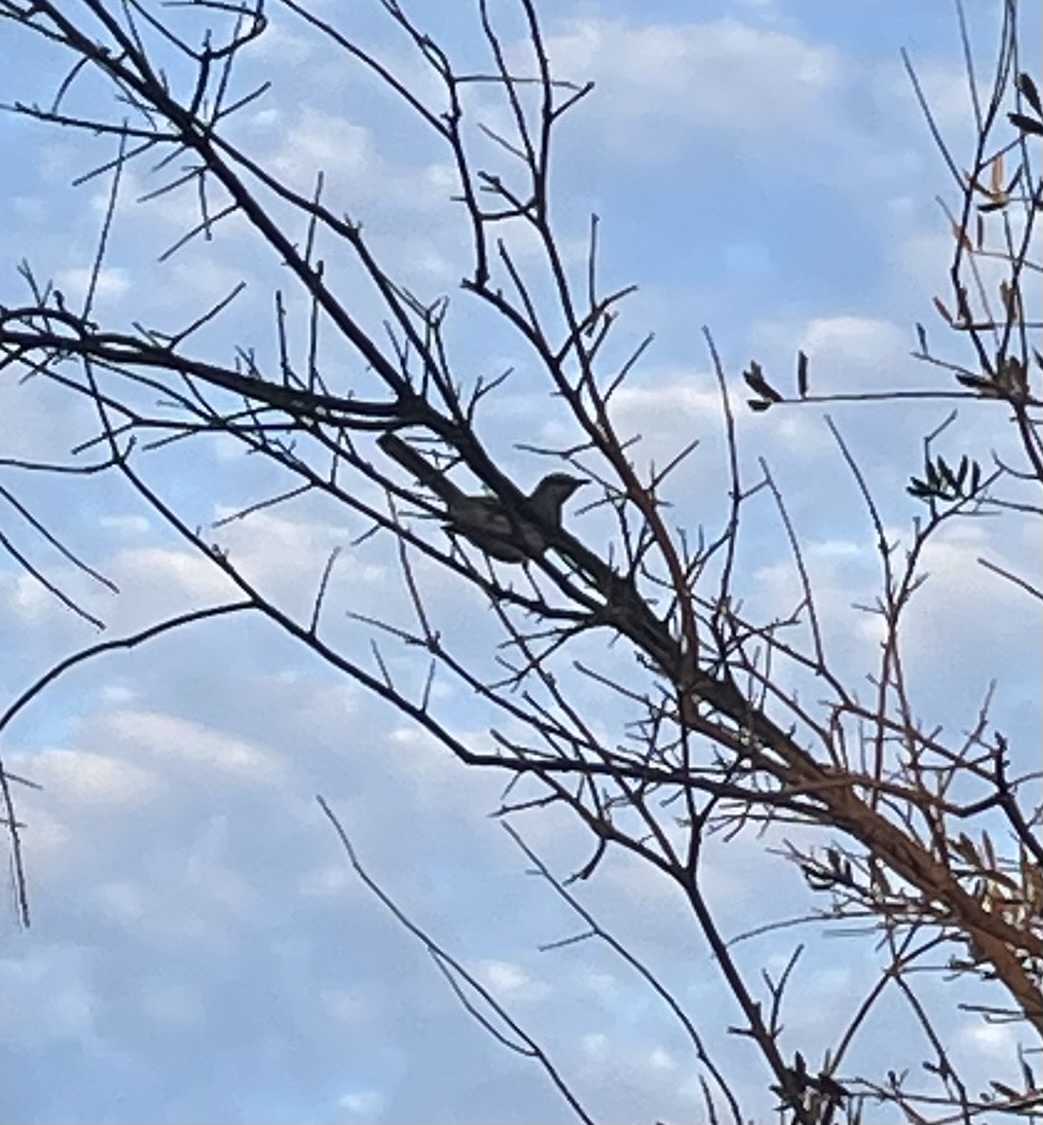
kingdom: Animalia
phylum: Chordata
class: Aves
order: Passeriformes
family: Mimidae
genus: Mimus
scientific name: Mimus polyglottos
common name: Northern mockingbird
